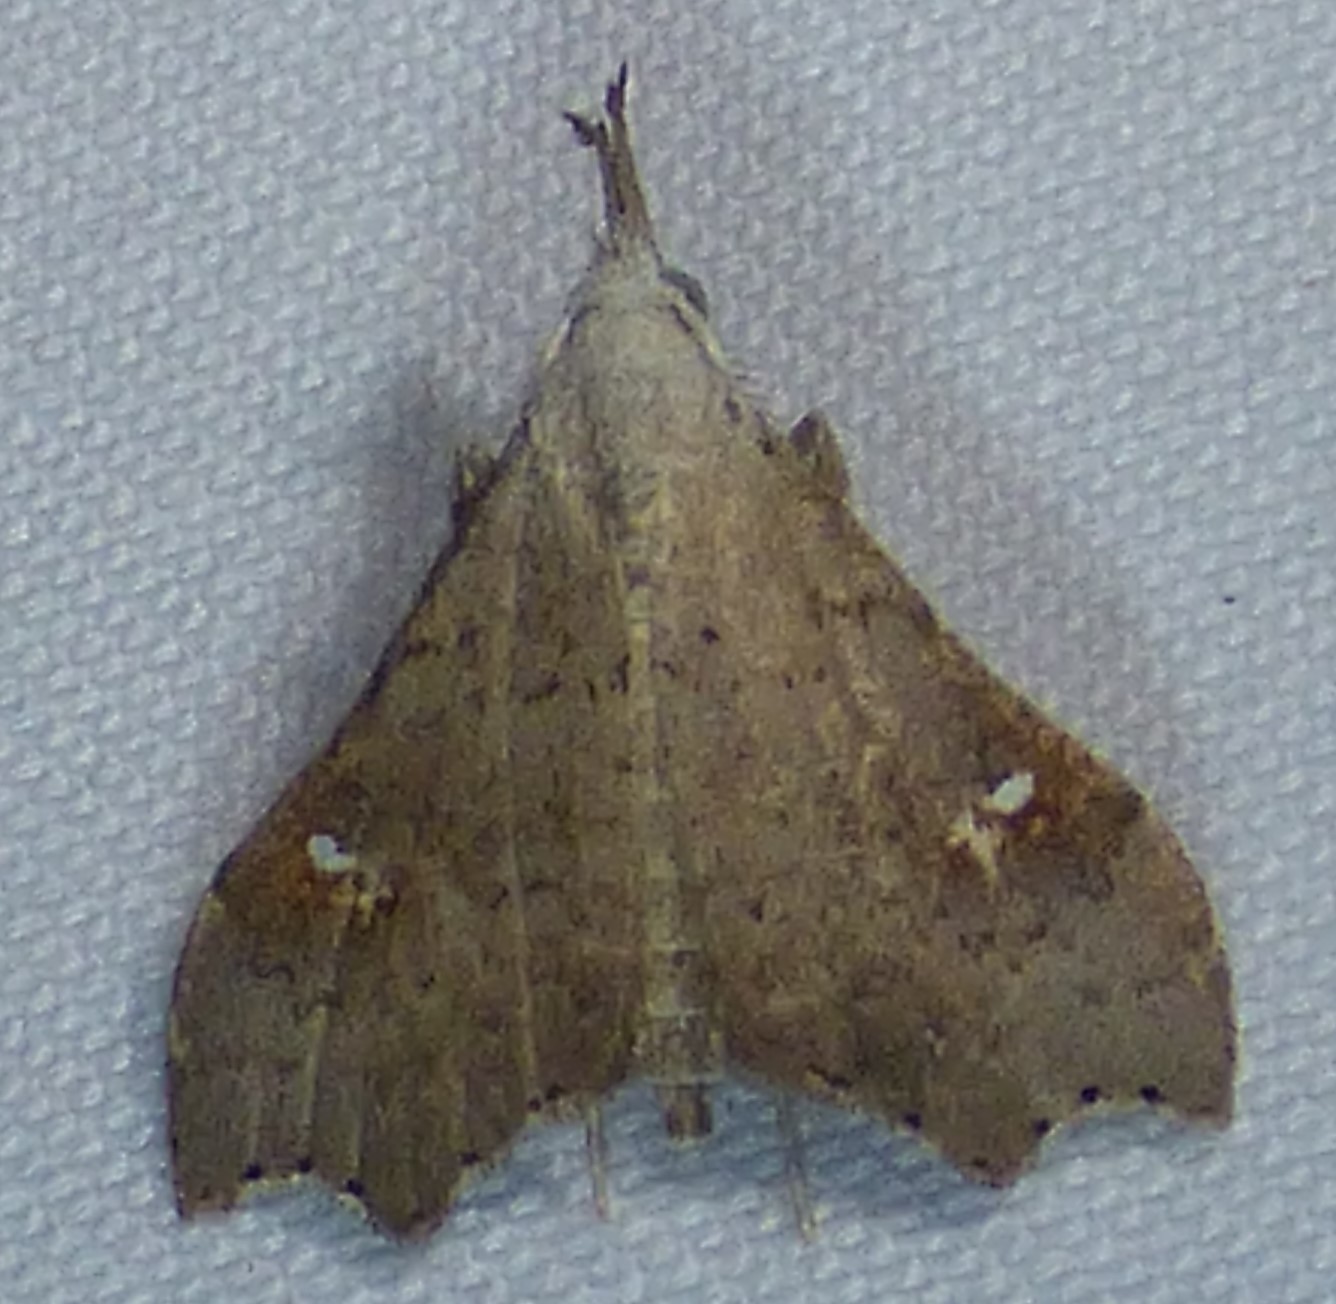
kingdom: Animalia
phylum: Arthropoda
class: Insecta
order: Lepidoptera
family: Erebidae
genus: Redectis
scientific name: Redectis vitrea
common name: White-spotted redectis
